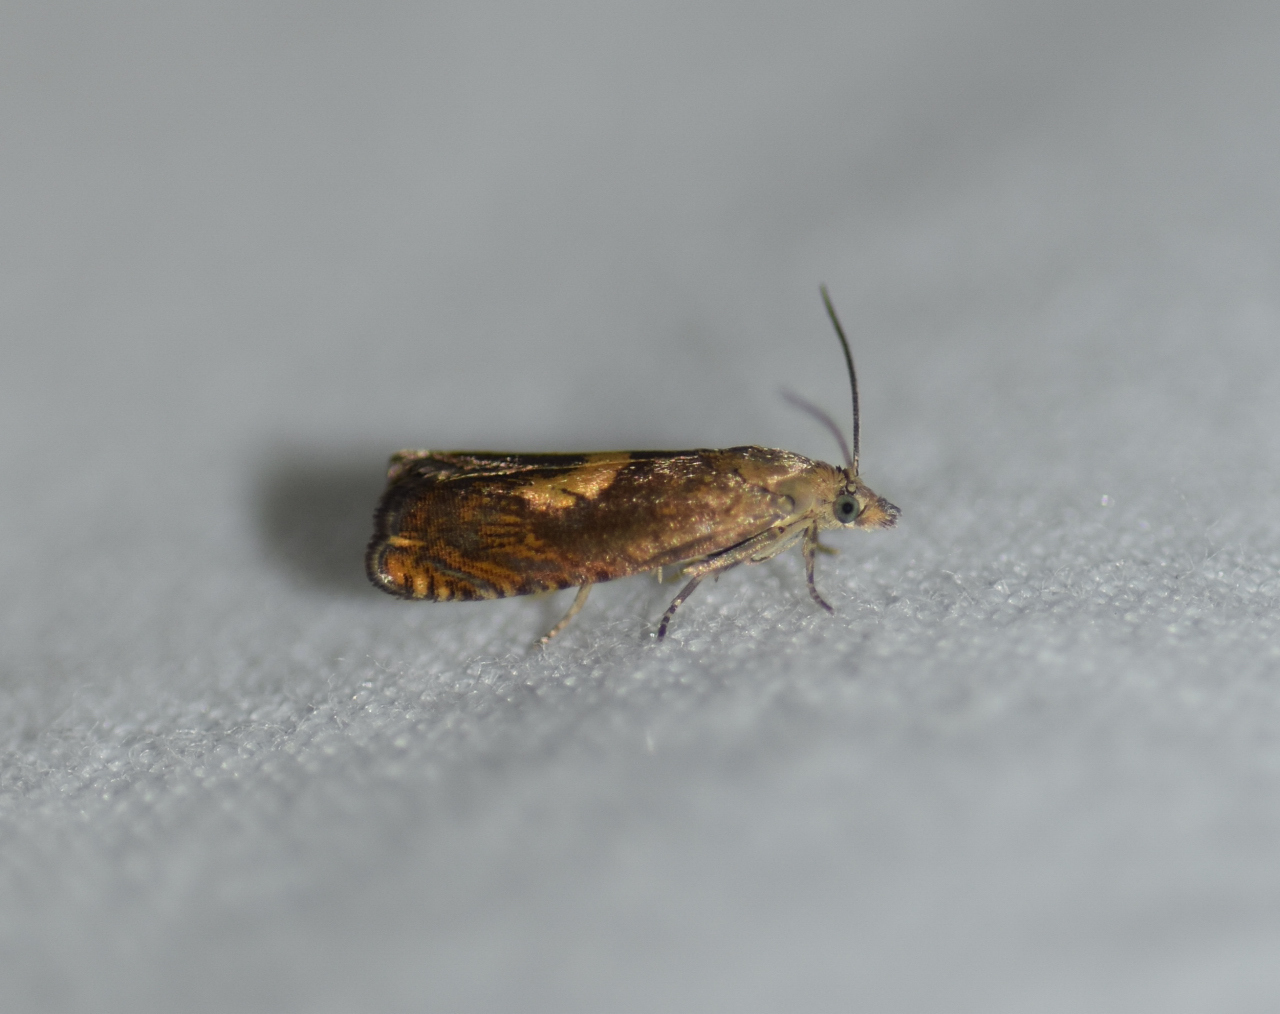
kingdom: Animalia
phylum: Arthropoda
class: Insecta
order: Lepidoptera
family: Tortricidae
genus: Dichrorampha
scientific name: Dichrorampha bittana
